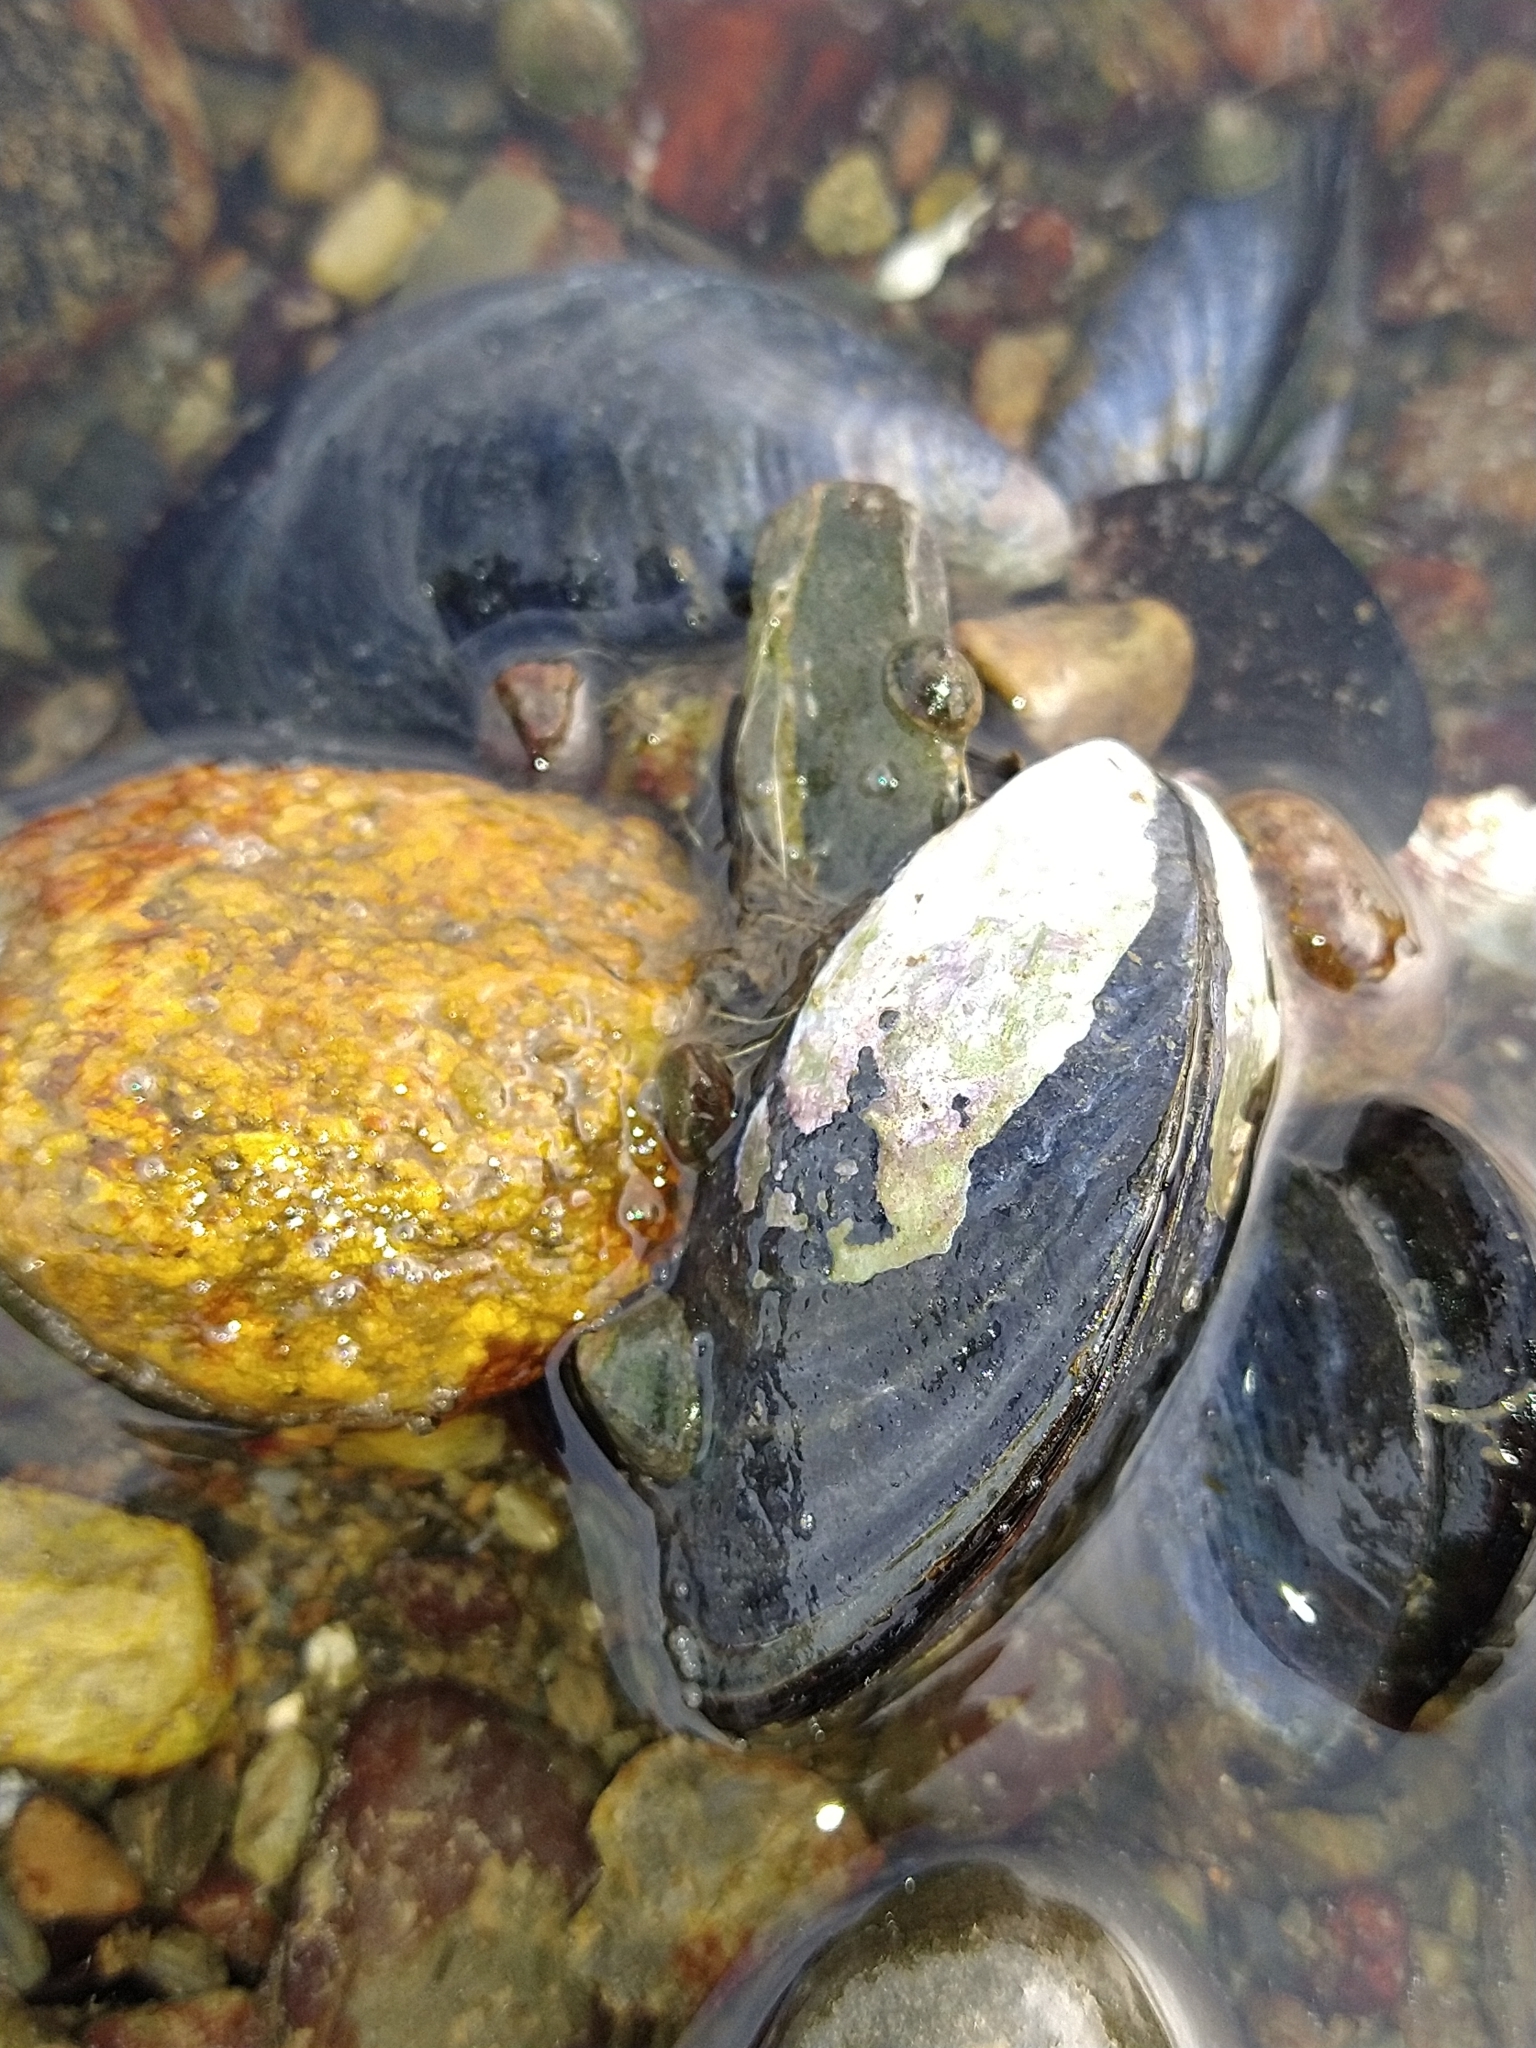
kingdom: Animalia
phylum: Mollusca
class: Bivalvia
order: Mytilida
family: Mytilidae
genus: Mytilus
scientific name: Mytilus chilensis
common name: Chilean mussel
